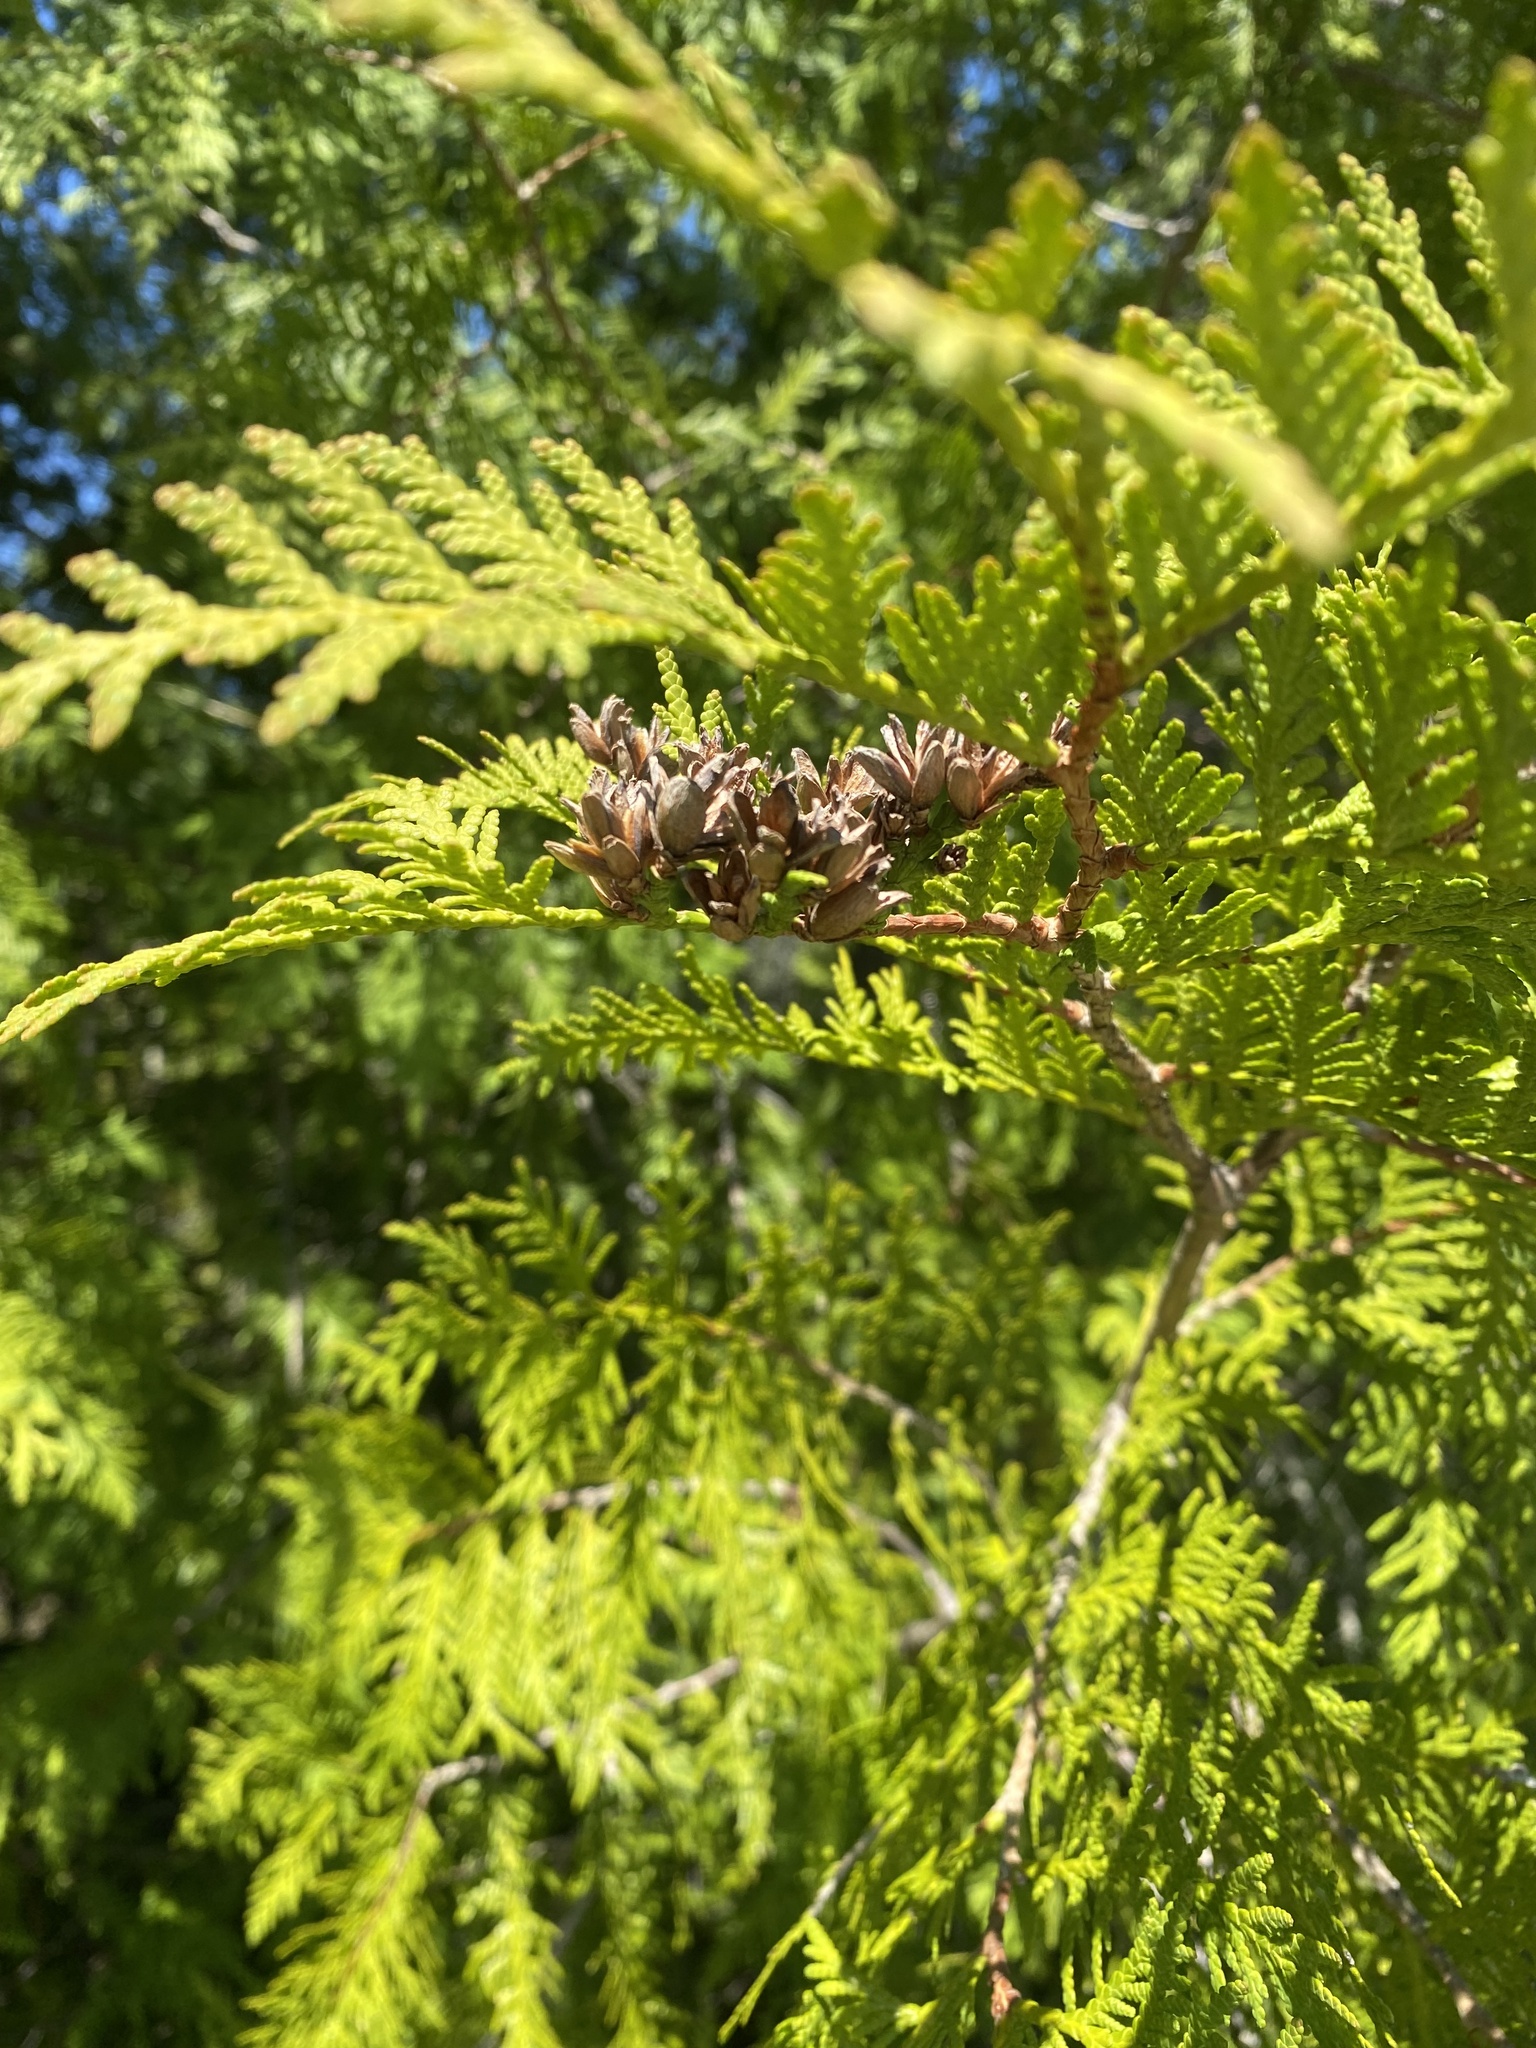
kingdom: Plantae
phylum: Tracheophyta
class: Pinopsida
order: Pinales
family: Cupressaceae
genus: Thuja
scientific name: Thuja occidentalis
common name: Northern white-cedar
